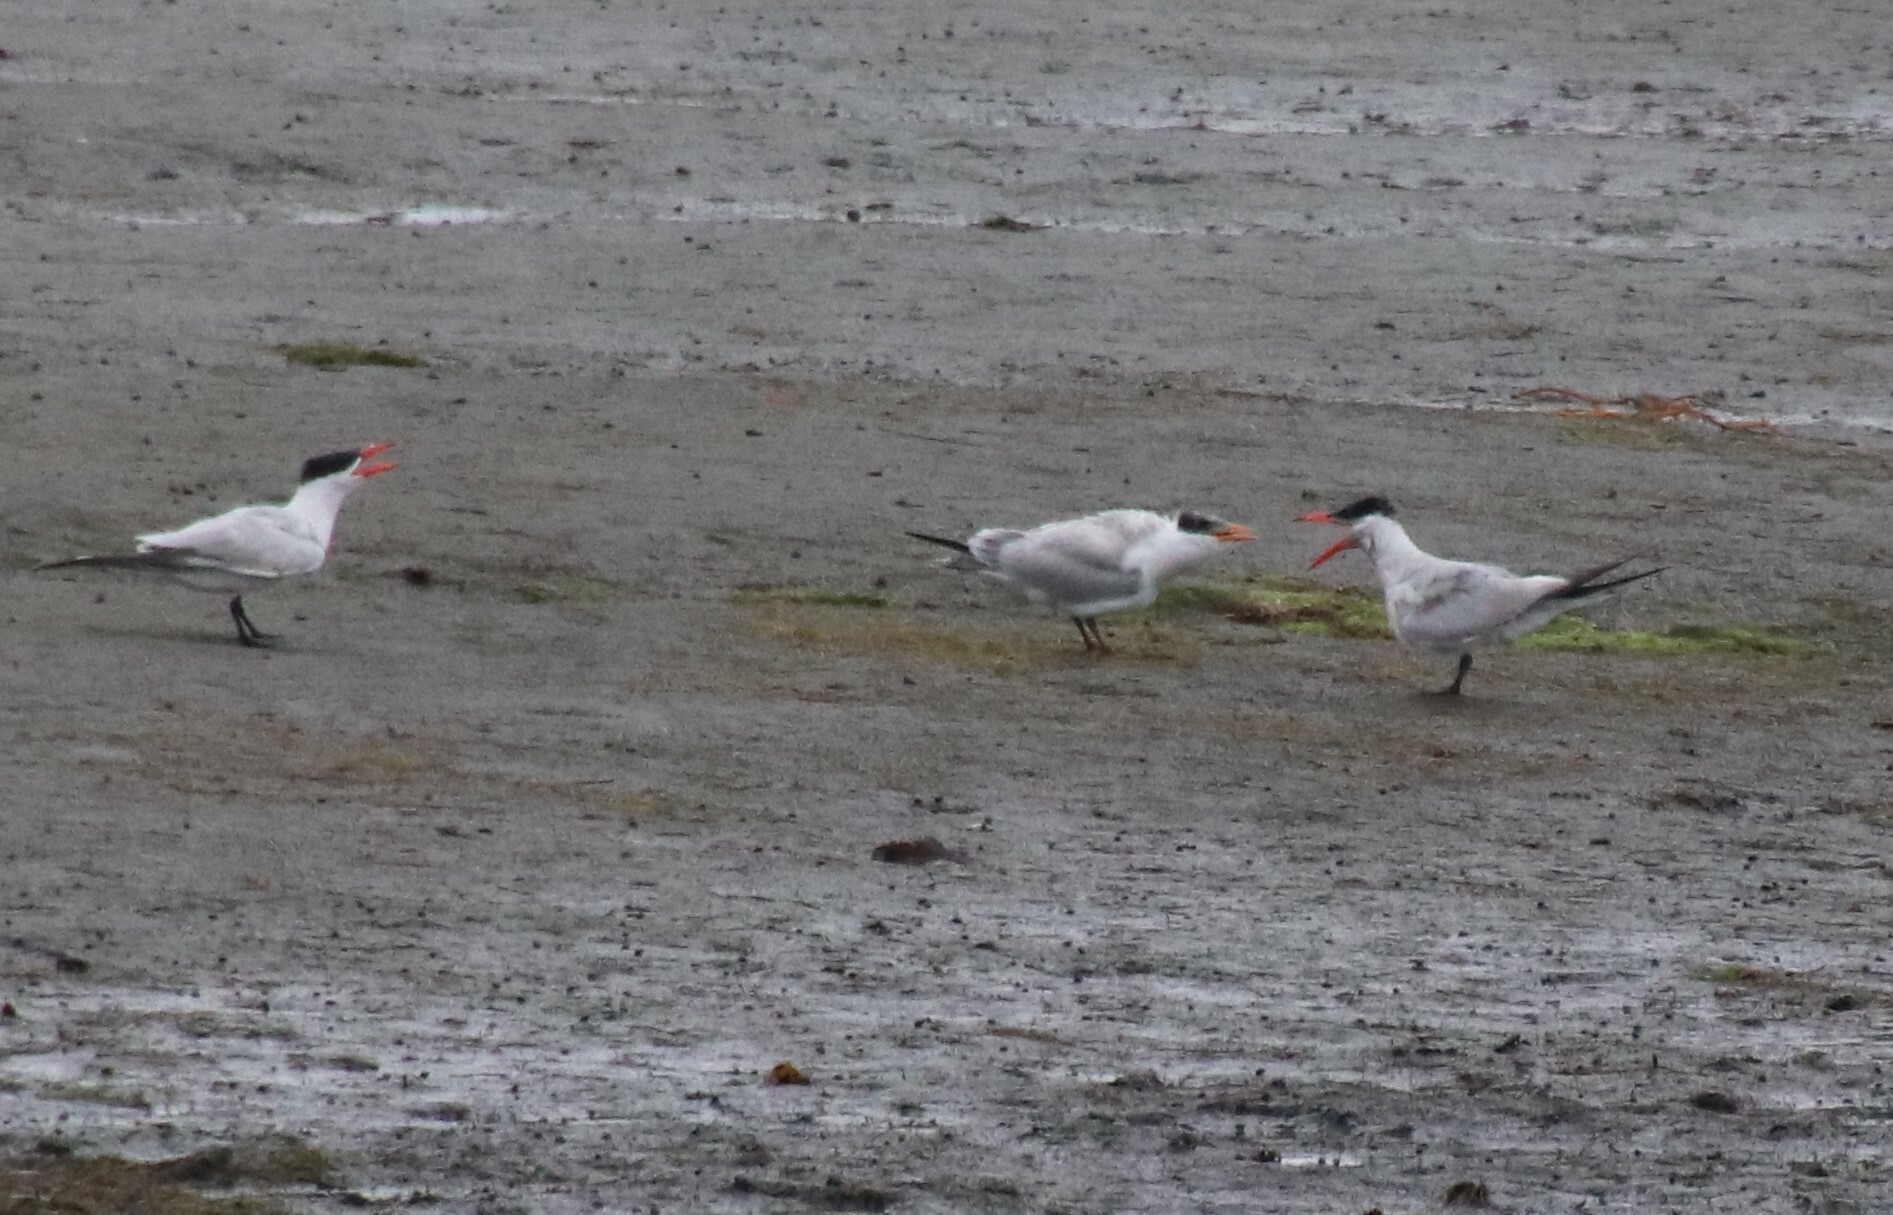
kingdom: Animalia
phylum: Chordata
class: Aves
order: Charadriiformes
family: Laridae
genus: Hydroprogne
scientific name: Hydroprogne caspia
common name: Caspian tern
